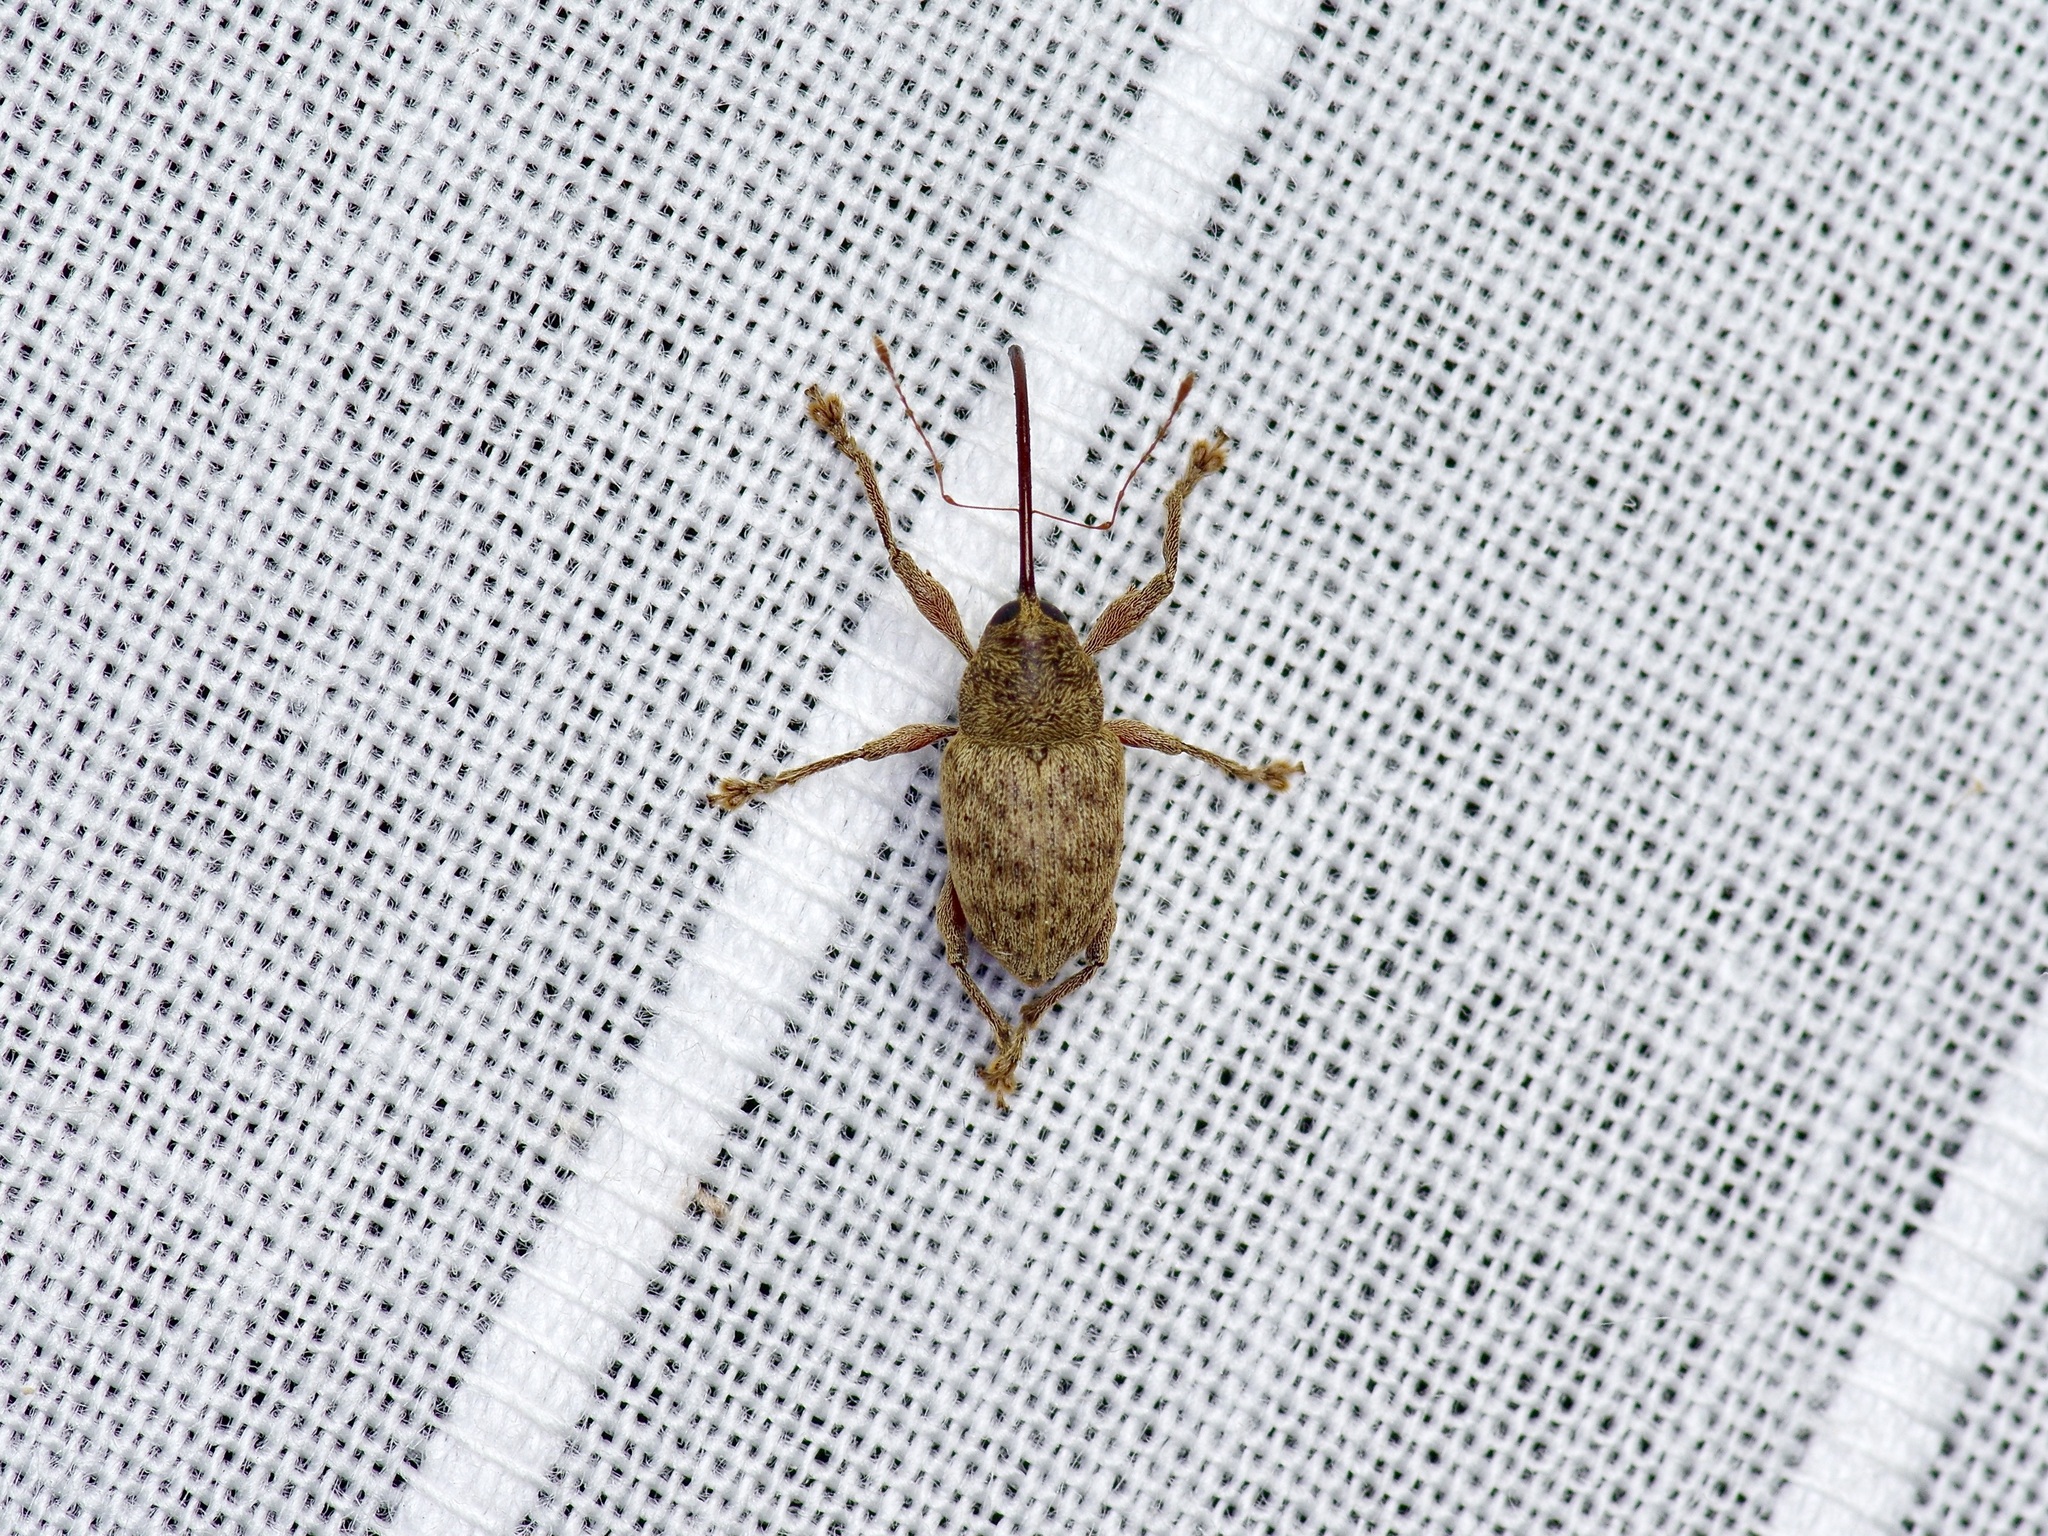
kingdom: Animalia
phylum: Arthropoda
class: Insecta
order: Coleoptera
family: Curculionidae
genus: Curculio
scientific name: Curculio
